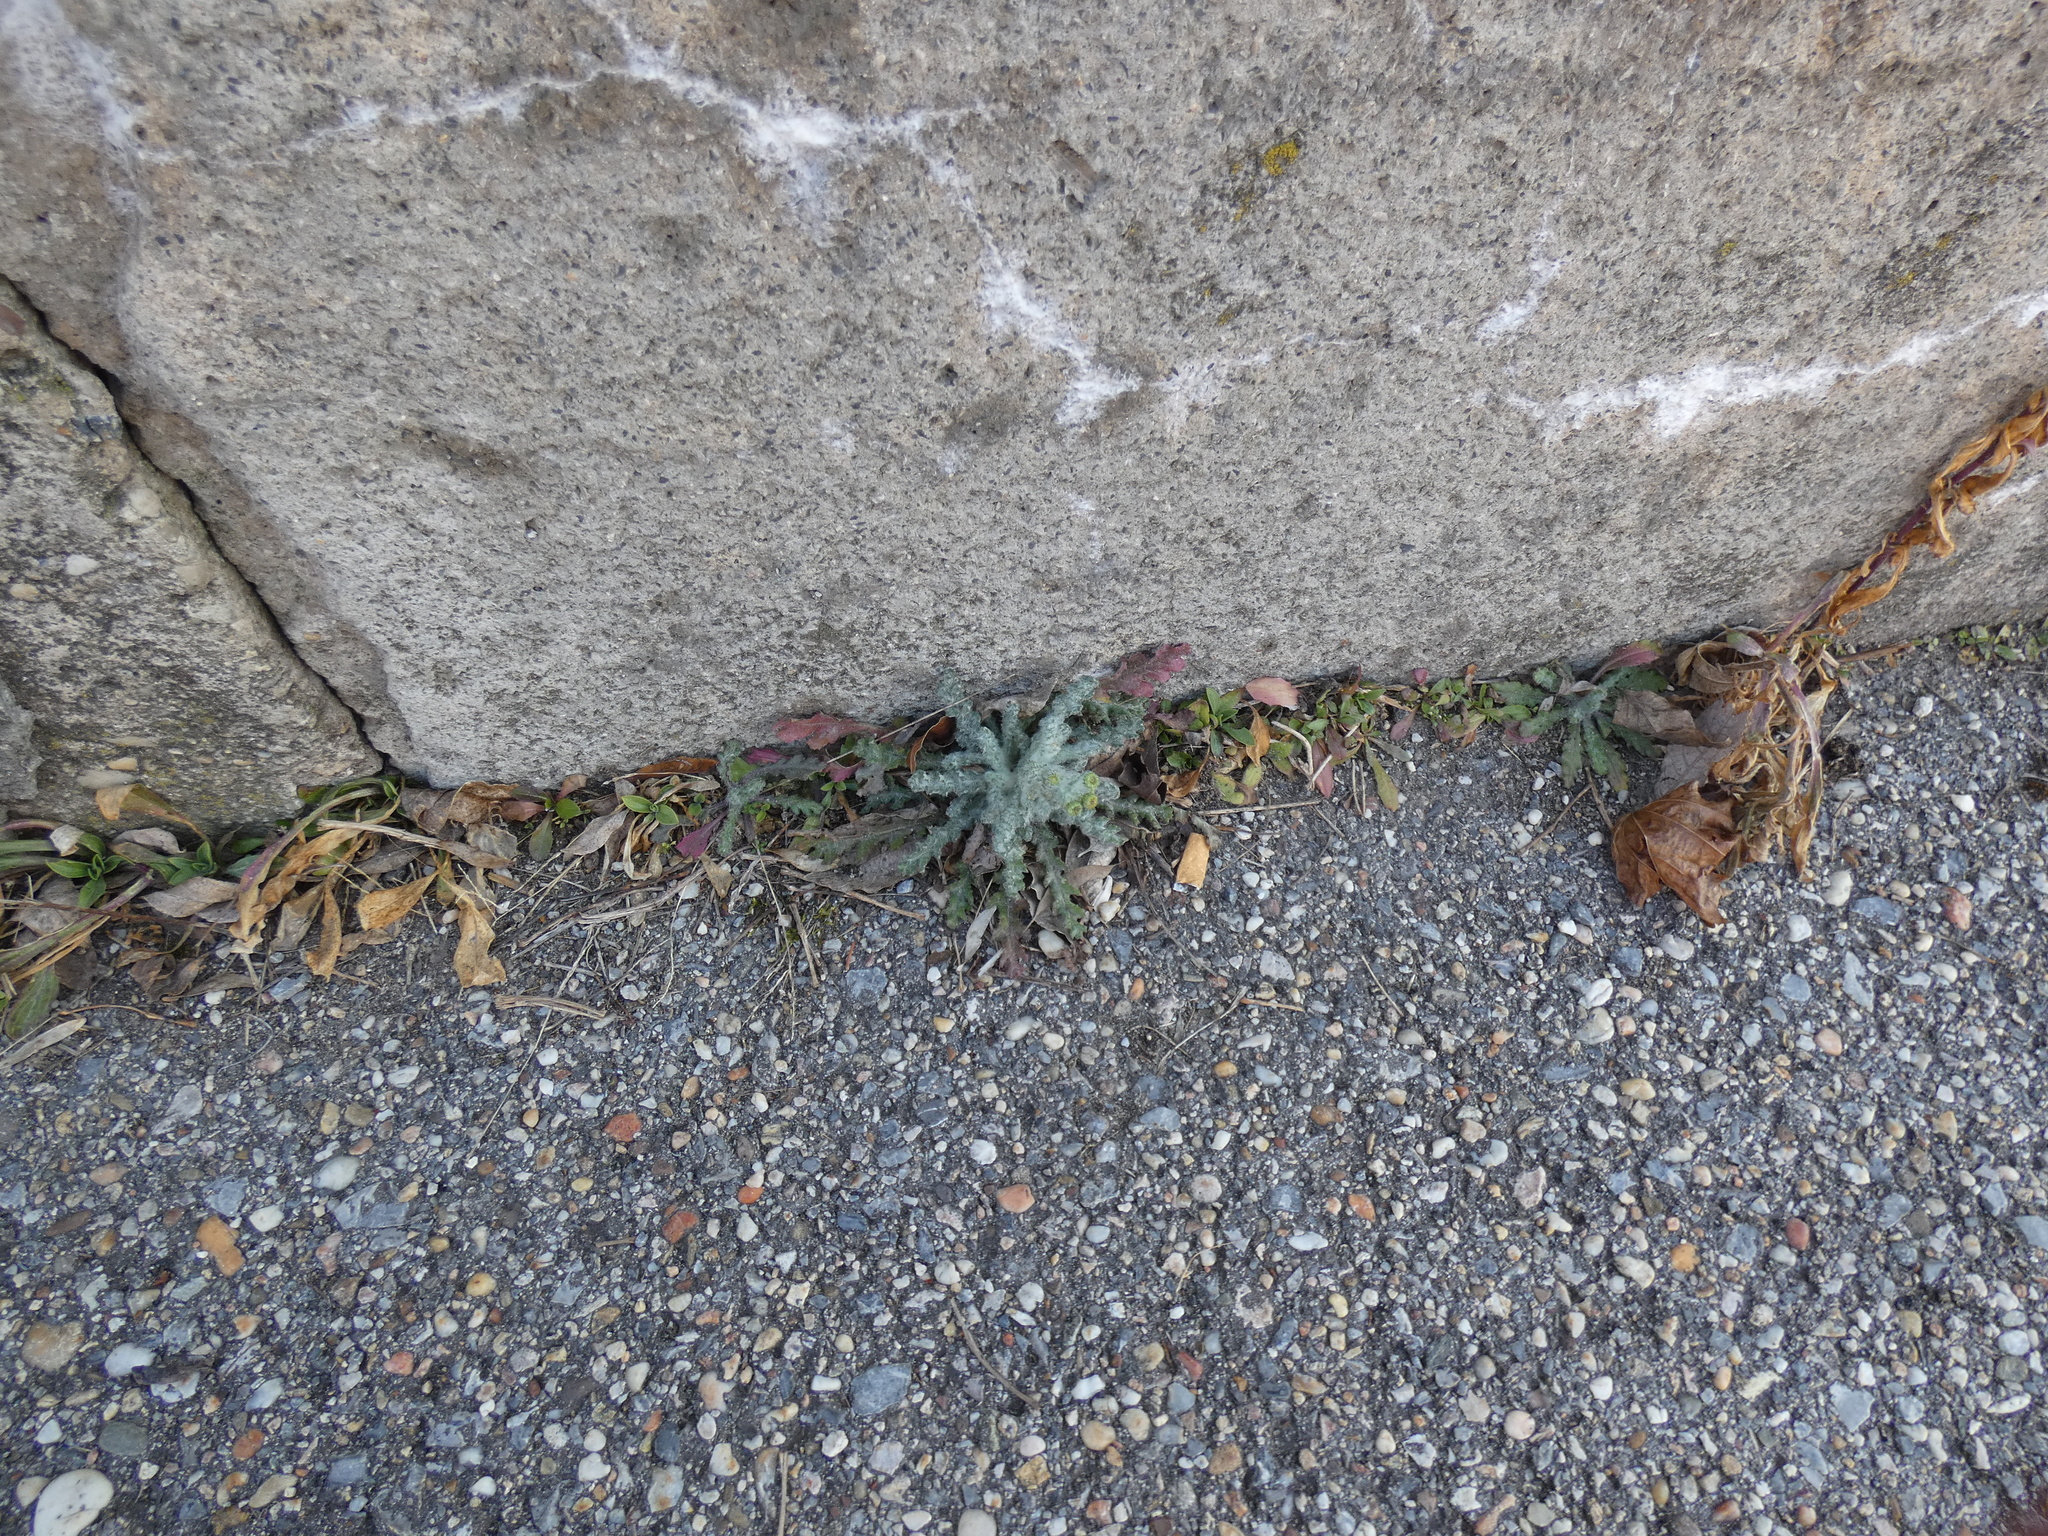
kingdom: Plantae
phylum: Tracheophyta
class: Magnoliopsida
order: Asterales
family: Asteraceae
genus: Senecio
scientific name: Senecio vernalis
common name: Eastern groundsel
